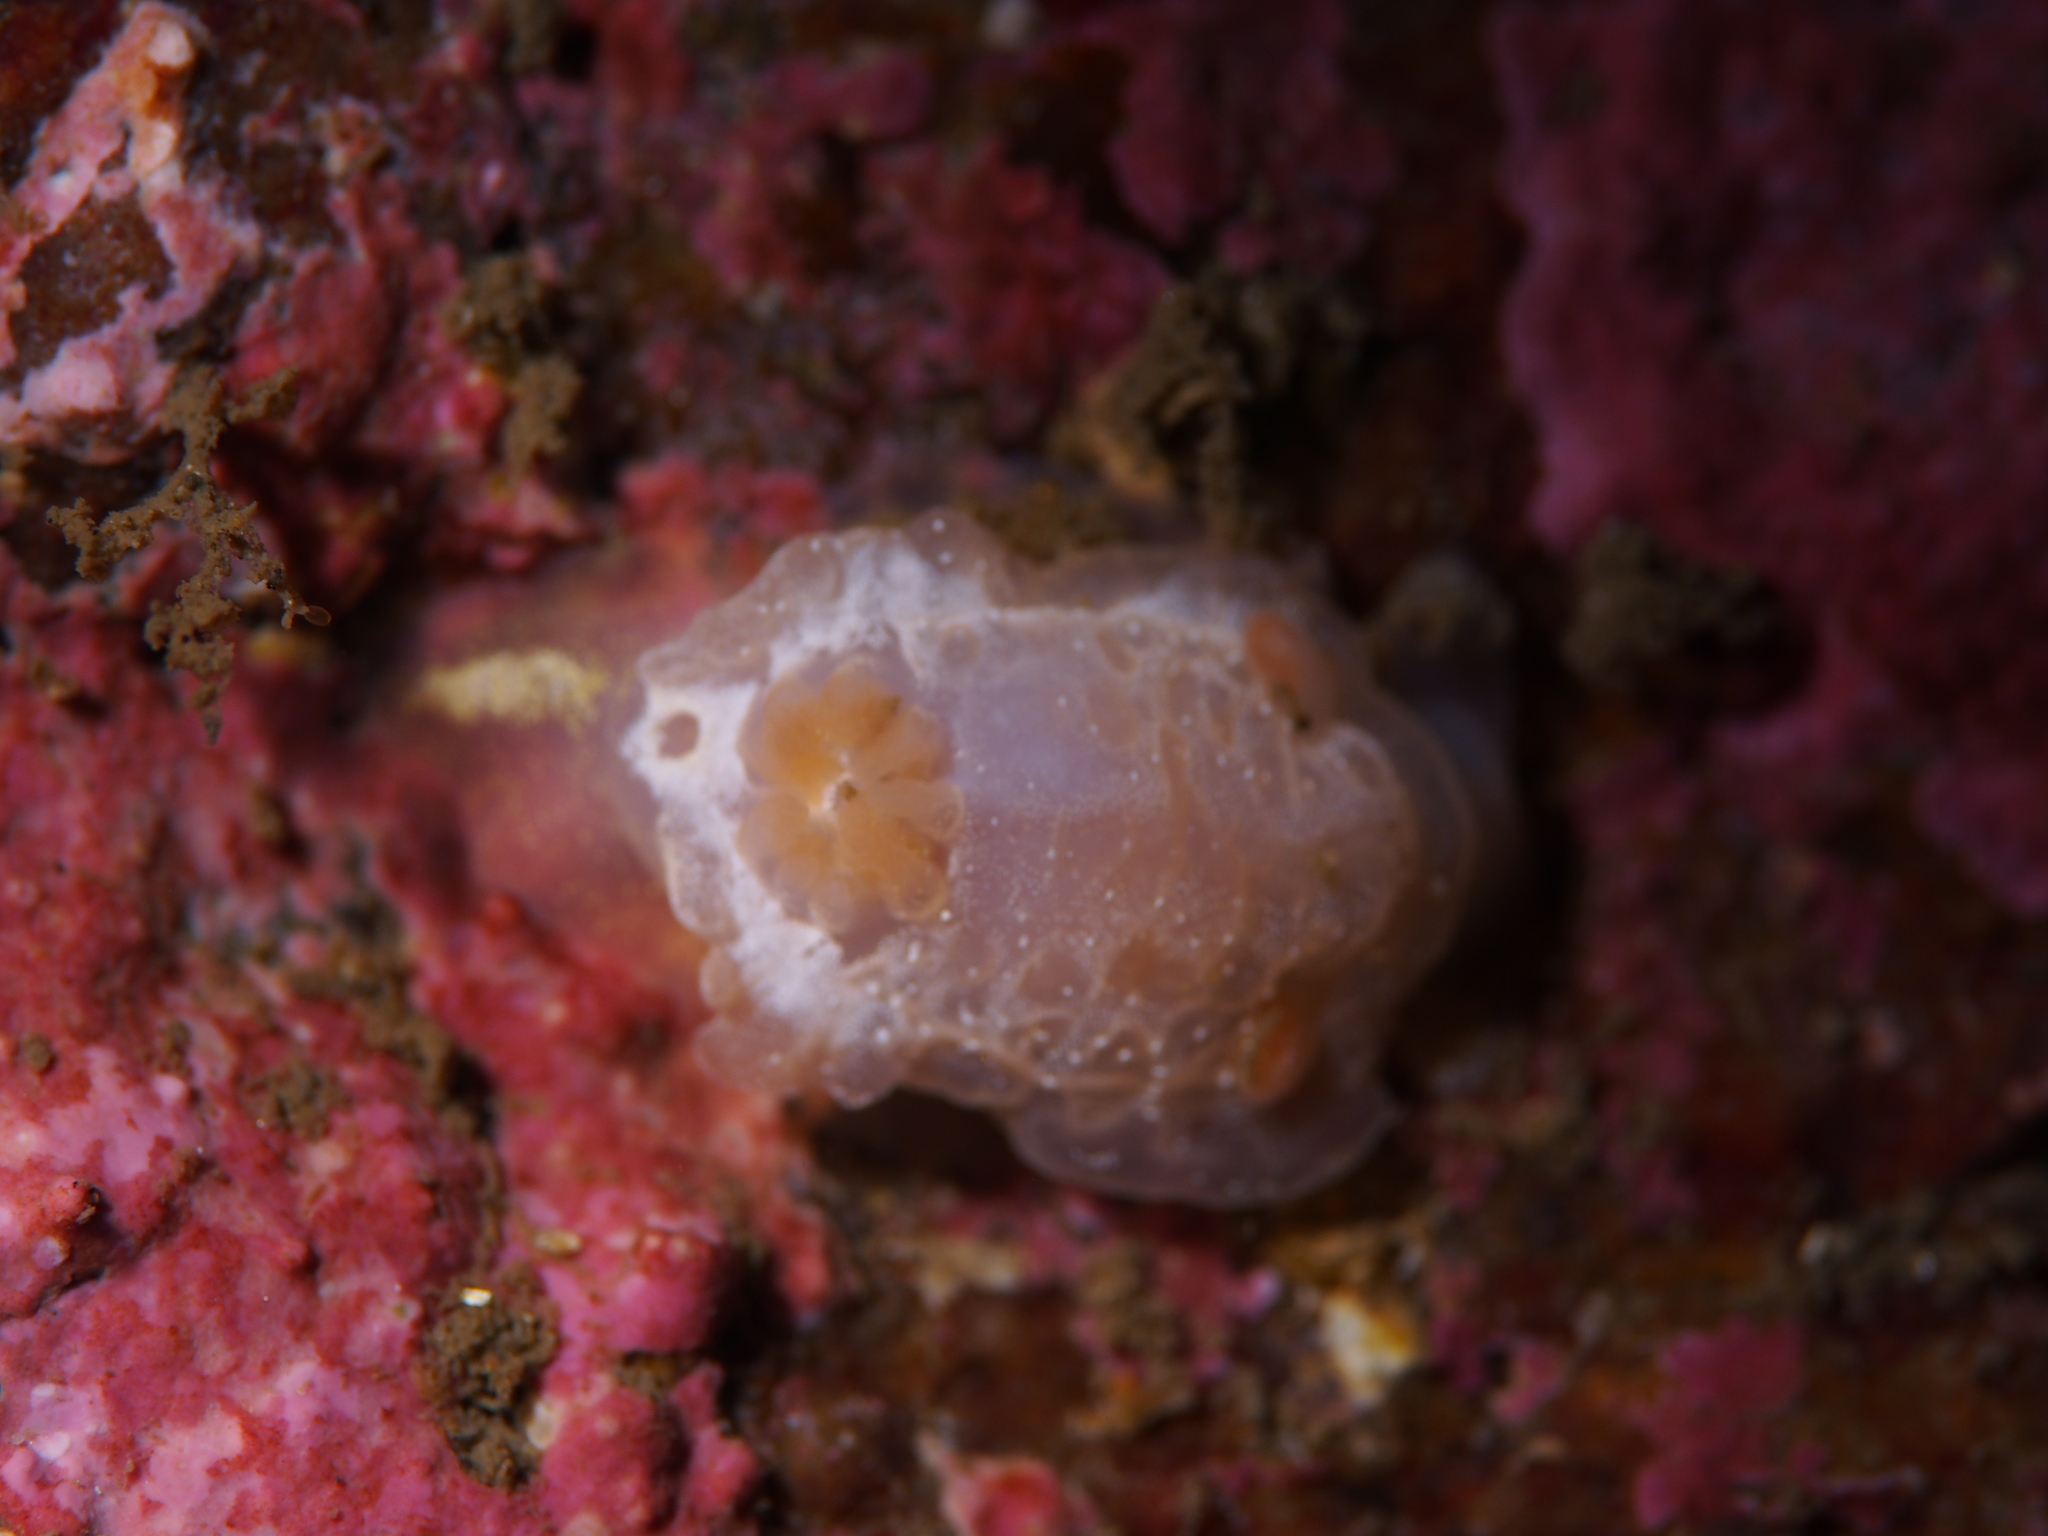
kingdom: Animalia
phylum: Mollusca
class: Gastropoda
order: Nudibranchia
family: Goniodorididae
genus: Okenia
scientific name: Okenia
